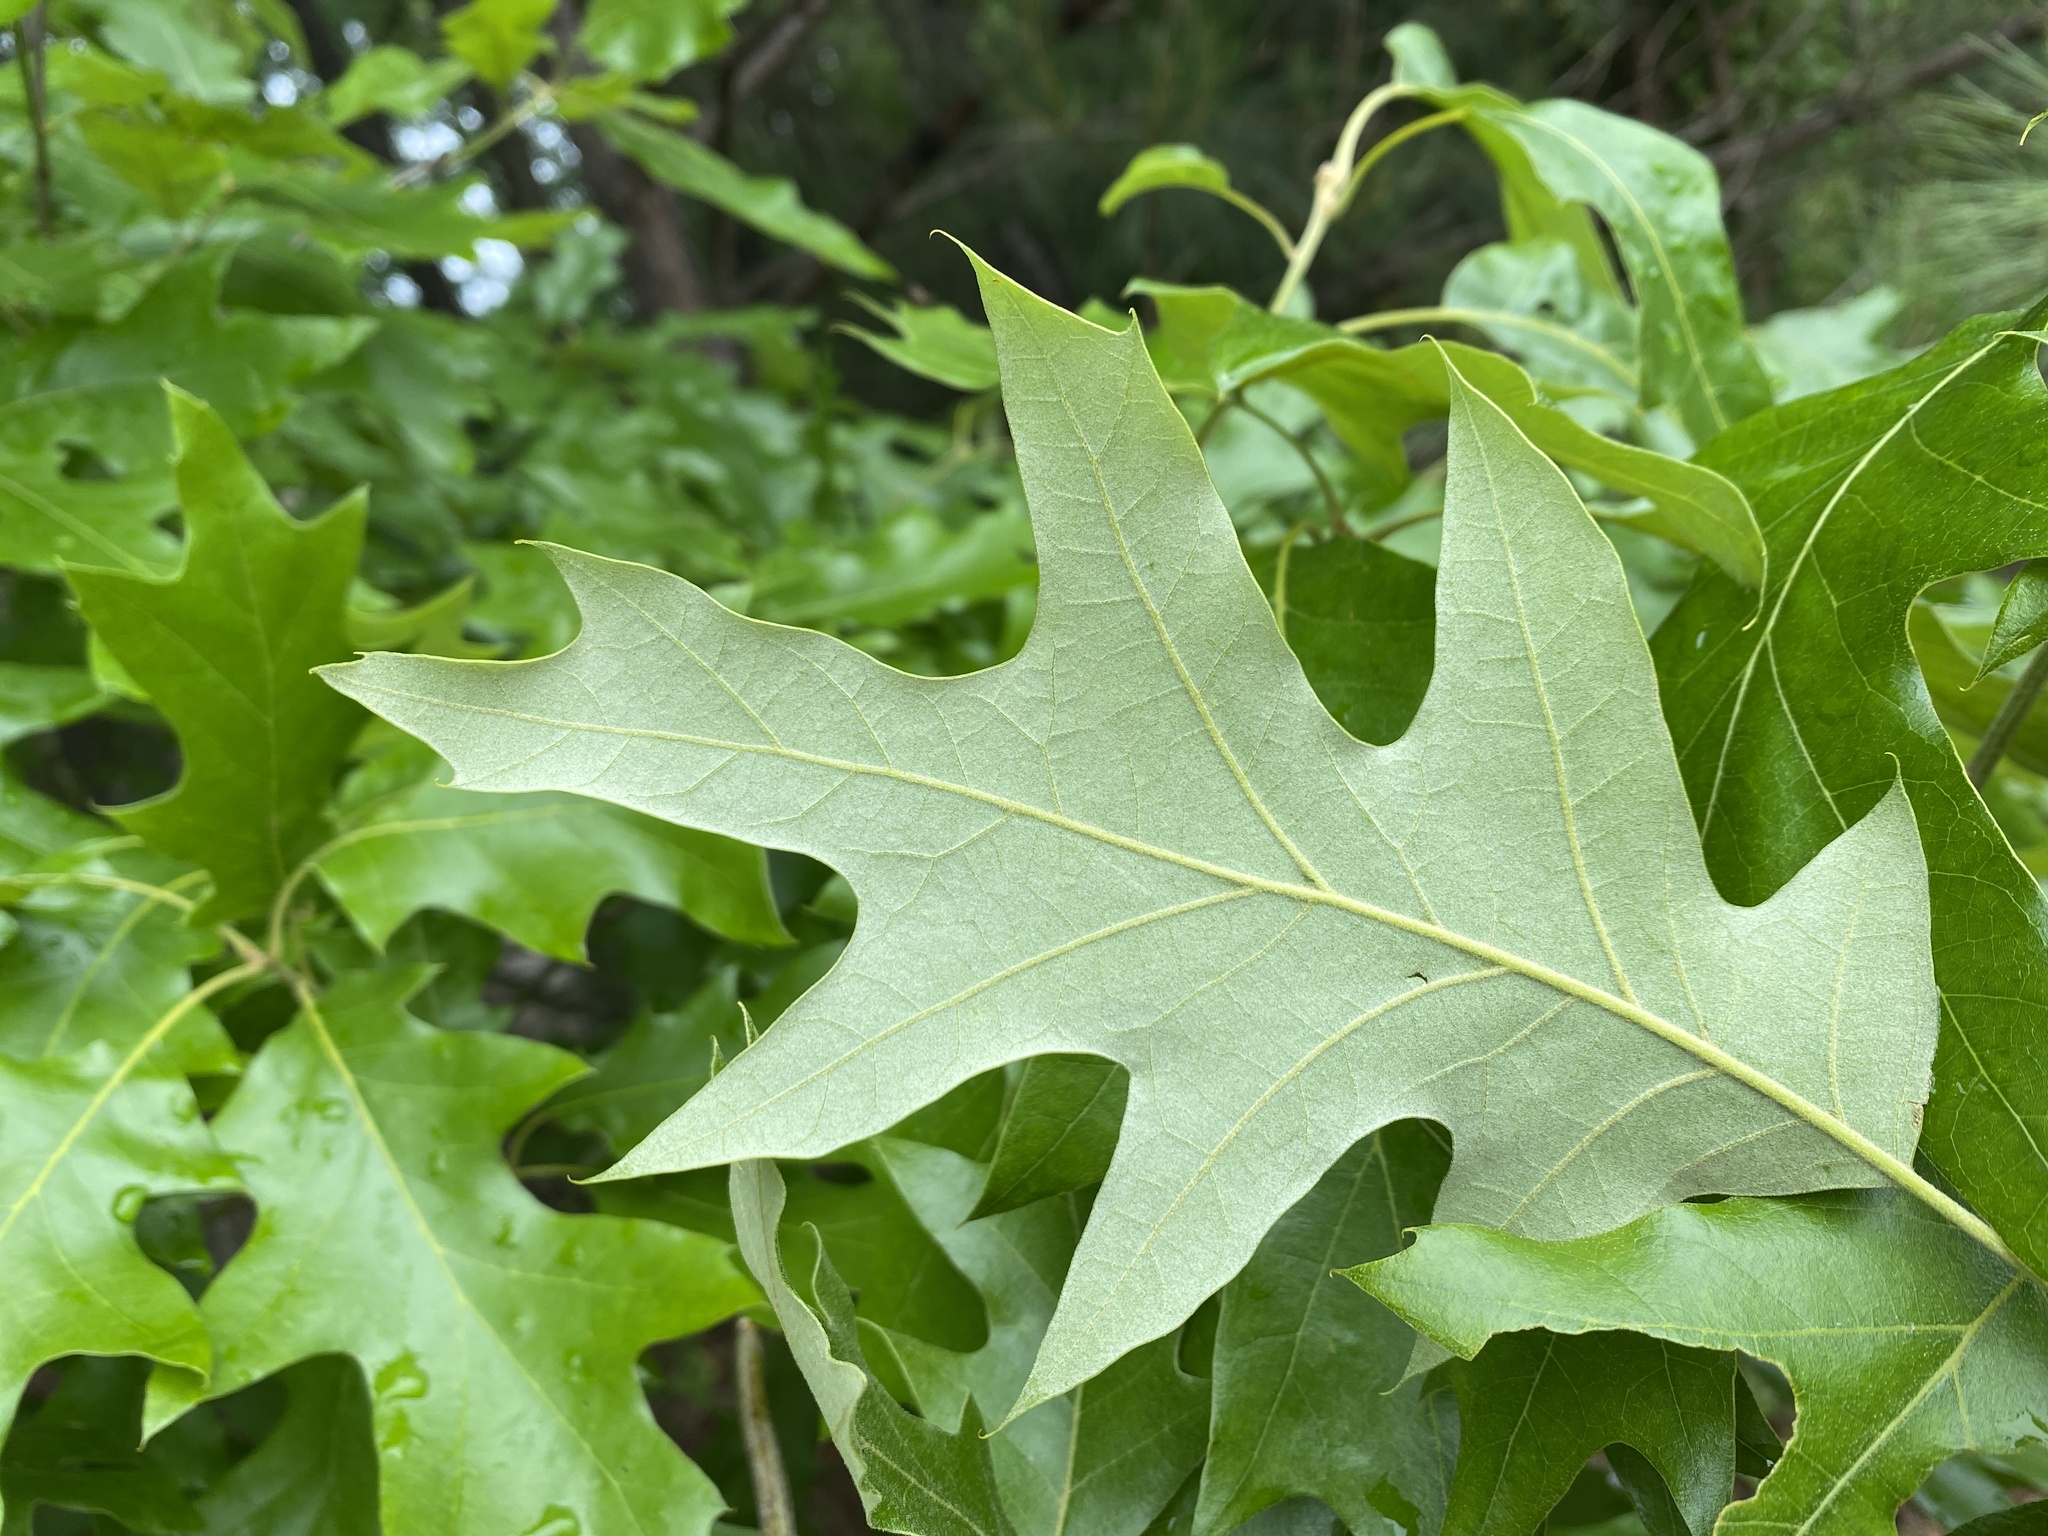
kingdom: Plantae
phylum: Tracheophyta
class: Magnoliopsida
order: Fagales
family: Fagaceae
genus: Quercus
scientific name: Quercus pagoda
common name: Cherrybark oak
